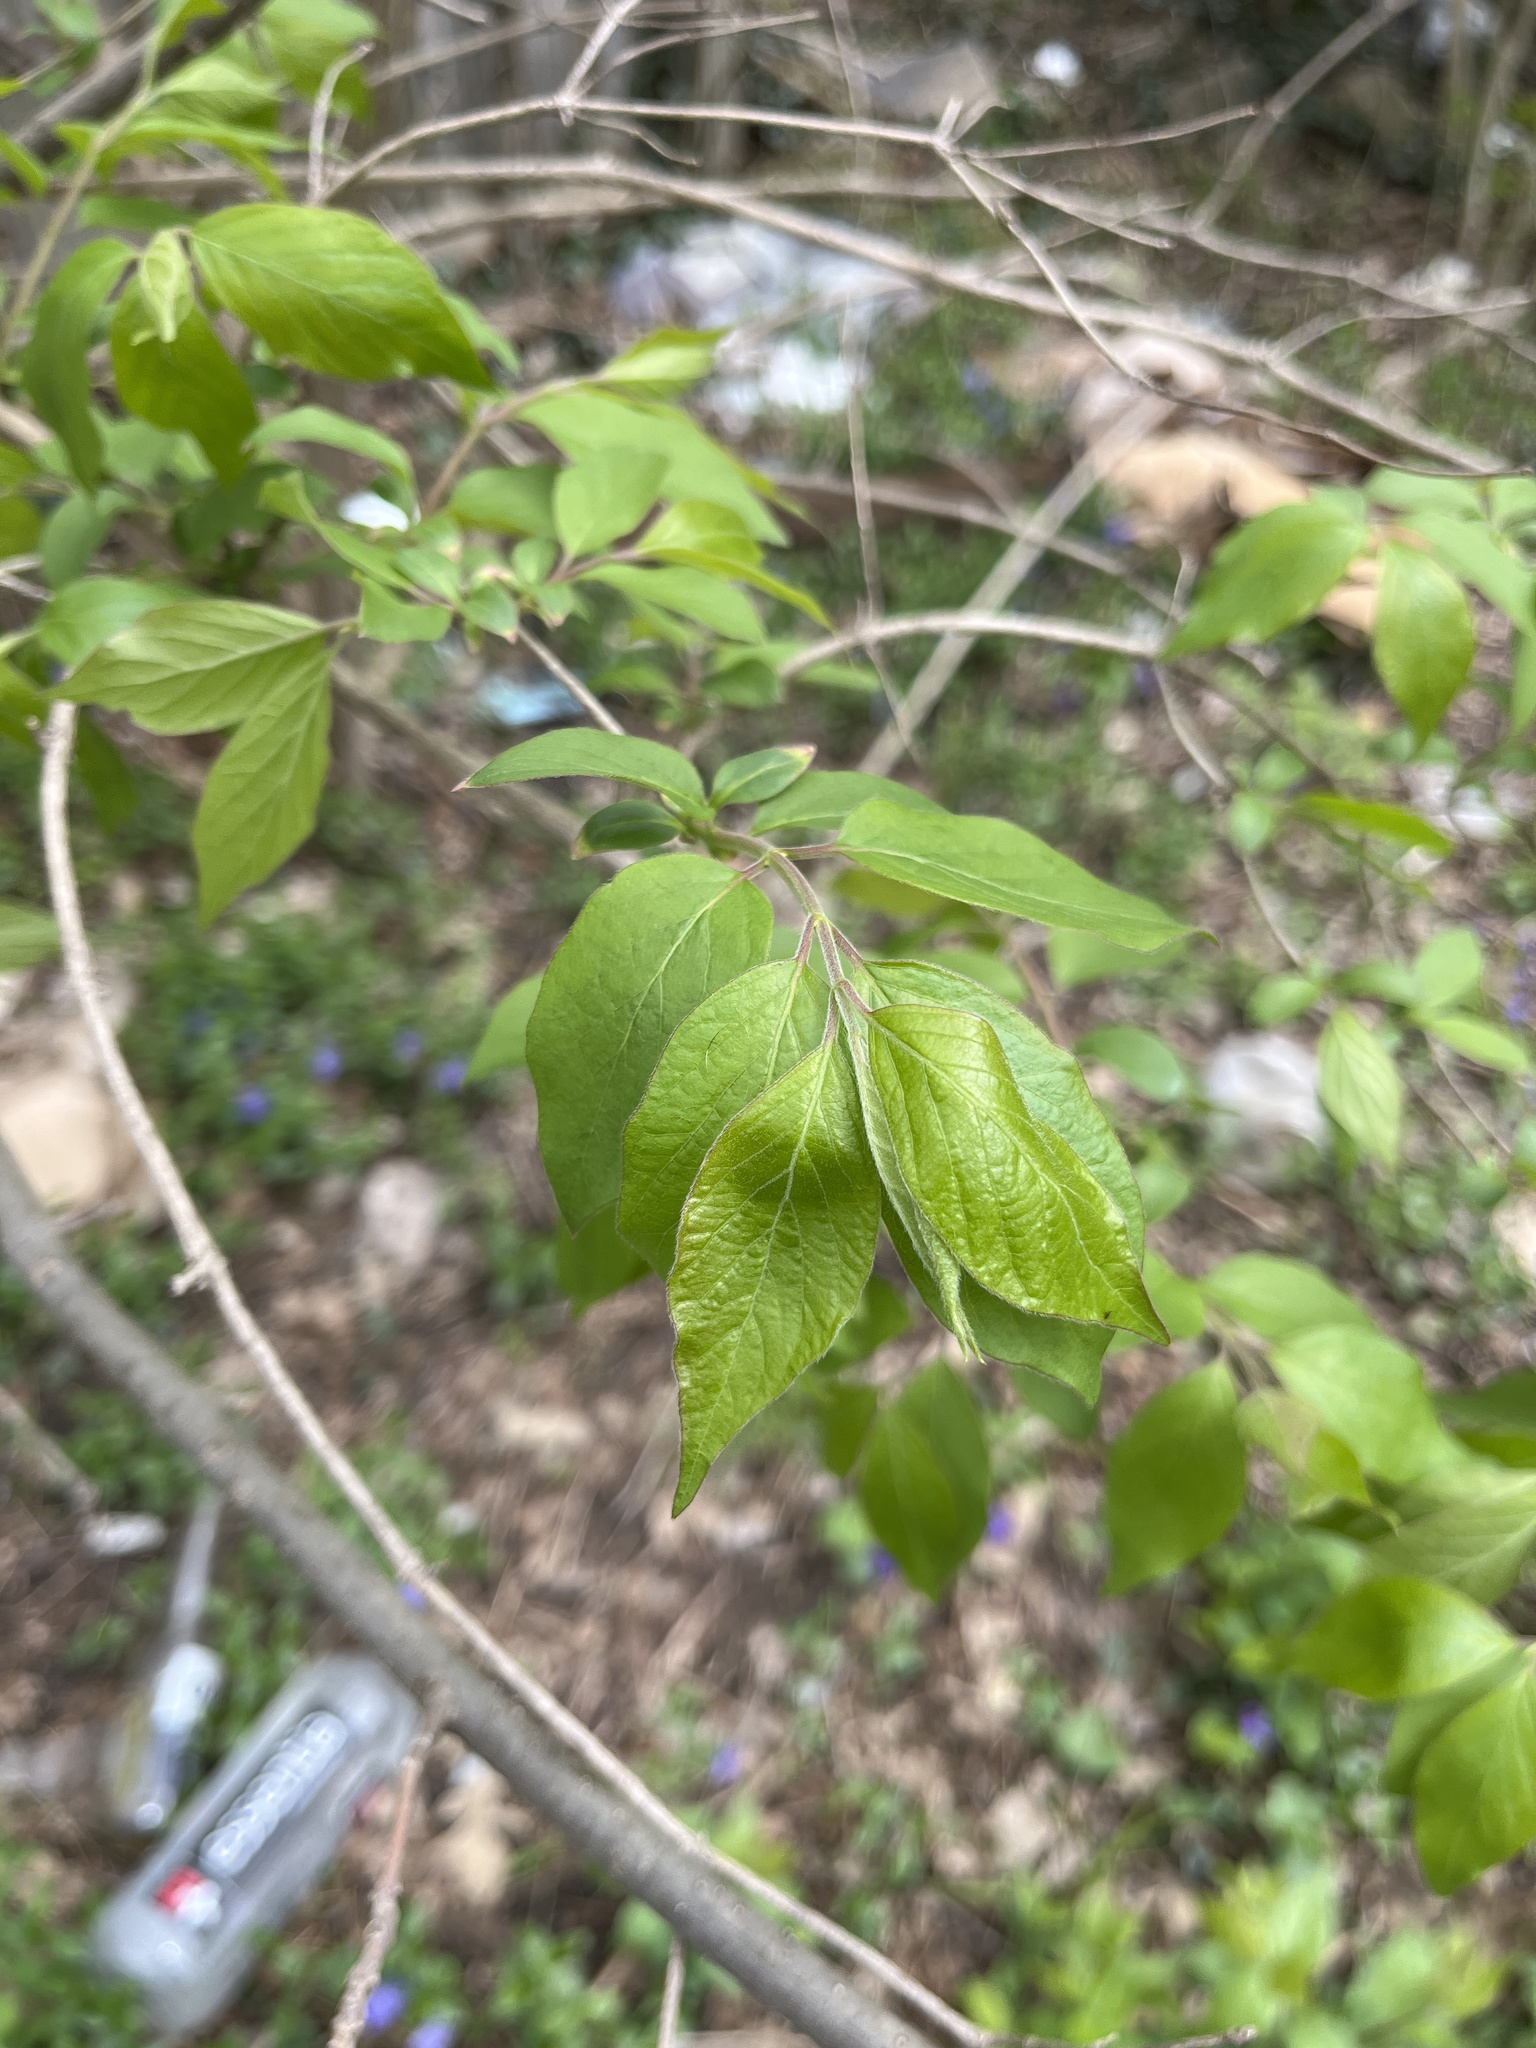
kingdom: Plantae
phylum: Tracheophyta
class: Magnoliopsida
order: Dipsacales
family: Caprifoliaceae
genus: Lonicera
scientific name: Lonicera maackii
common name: Amur honeysuckle
